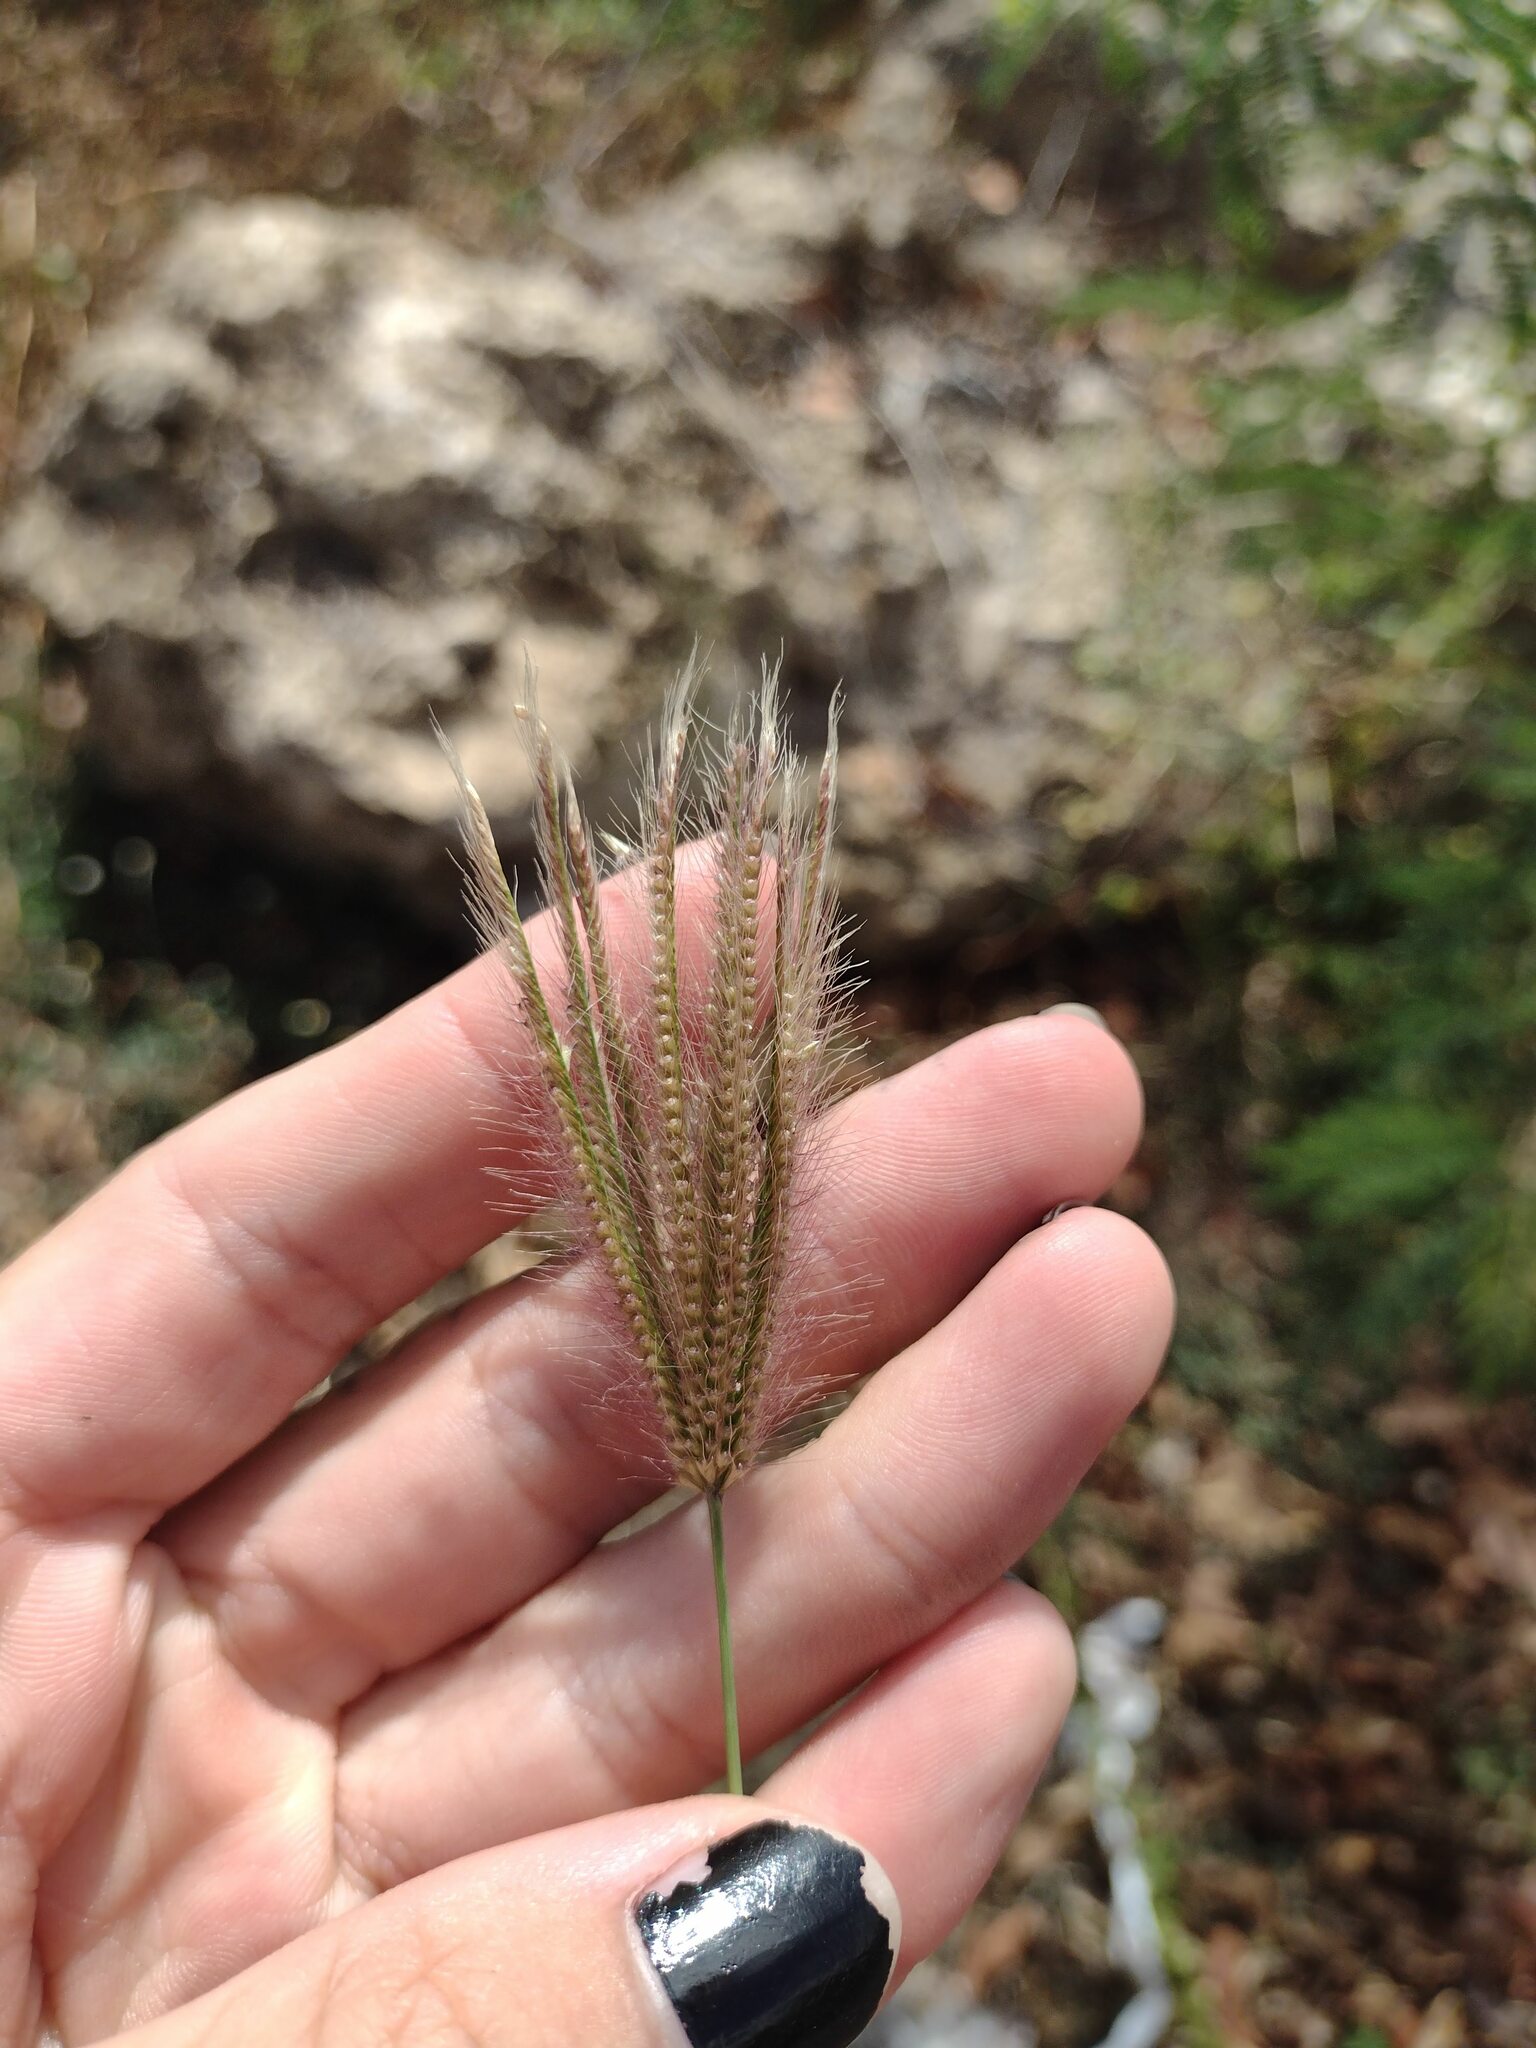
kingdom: Plantae
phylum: Tracheophyta
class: Liliopsida
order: Poales
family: Poaceae
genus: Chloris
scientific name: Chloris barbata
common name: Swollen fingergrass
